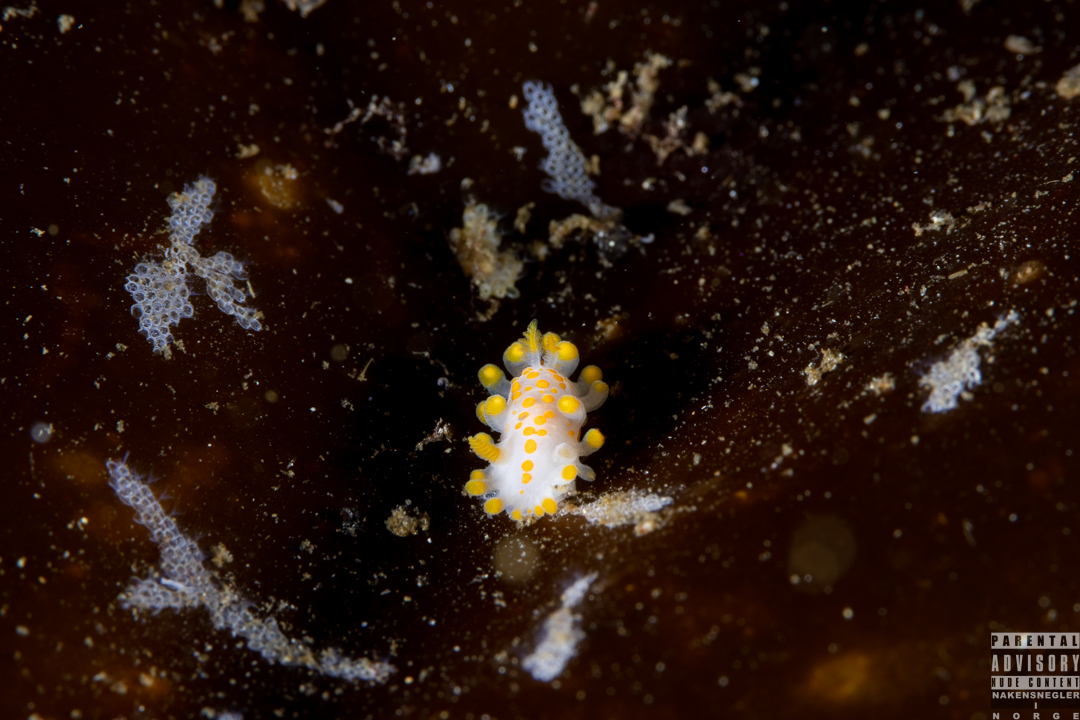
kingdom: Animalia
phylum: Mollusca
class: Gastropoda
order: Nudibranchia
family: Polyceridae
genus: Limacia
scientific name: Limacia clavigera
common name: Orange-clubbed sea slug
